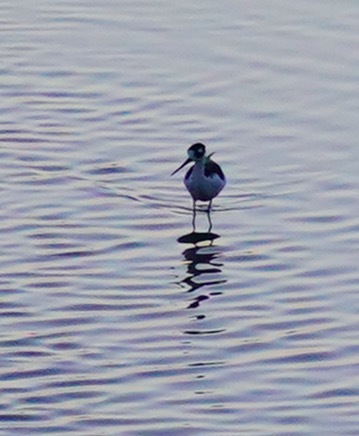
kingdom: Animalia
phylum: Chordata
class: Aves
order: Charadriiformes
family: Recurvirostridae
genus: Himantopus
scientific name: Himantopus mexicanus
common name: Black-necked stilt
